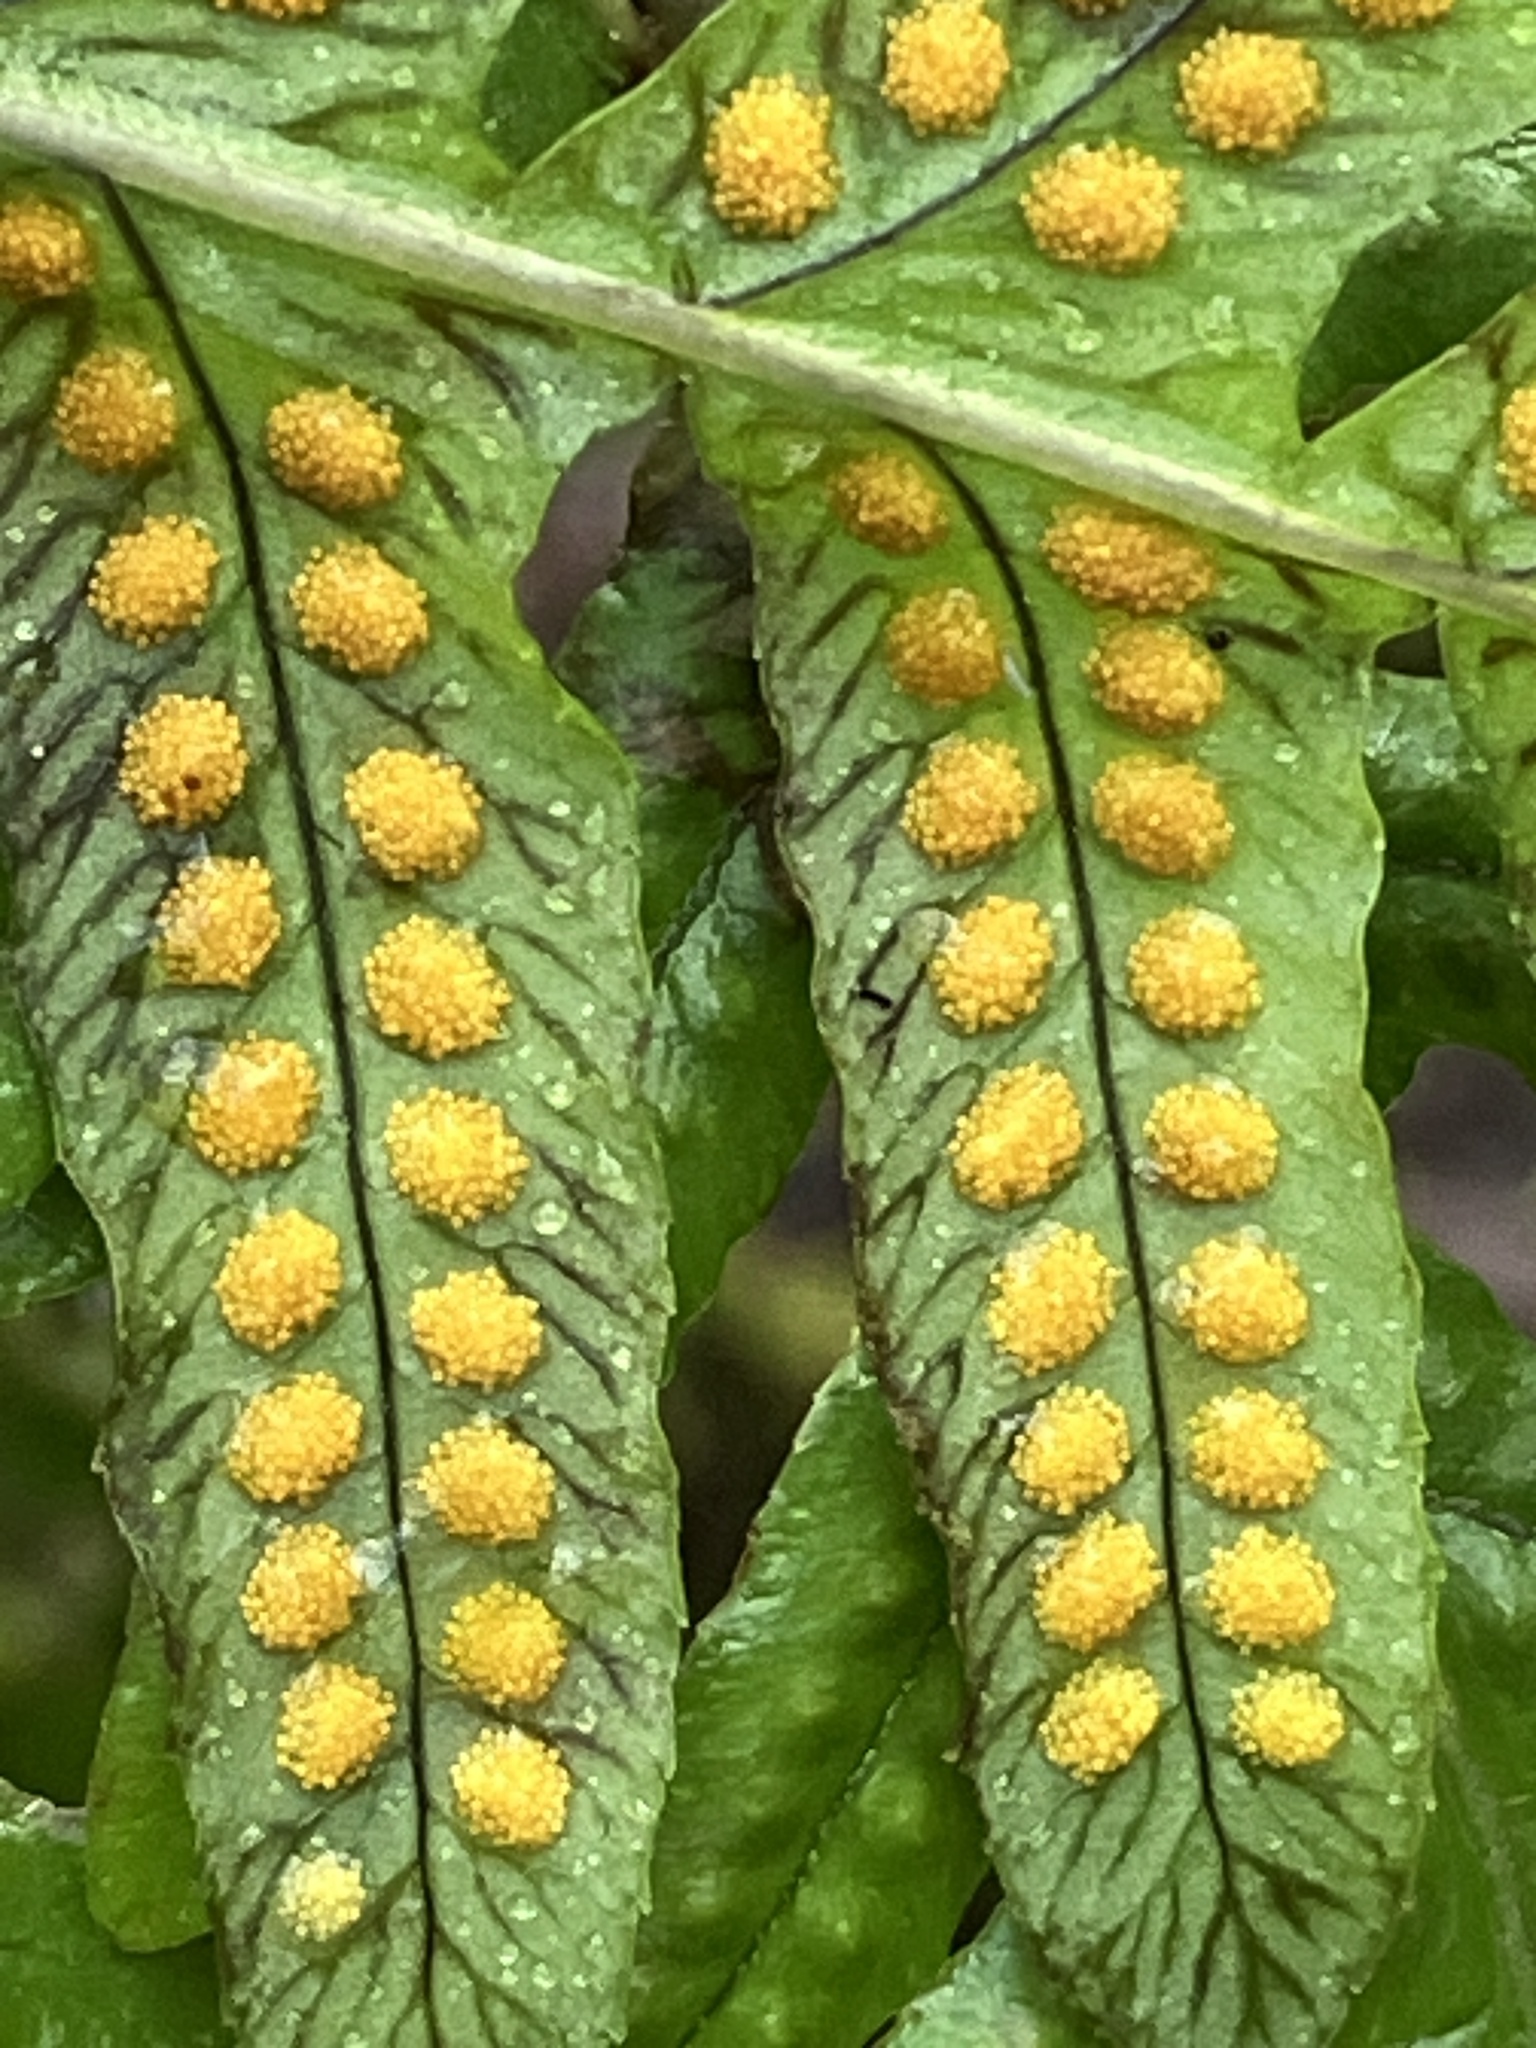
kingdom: Plantae
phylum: Tracheophyta
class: Polypodiopsida
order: Polypodiales
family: Polypodiaceae
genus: Polypodium
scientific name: Polypodium glycyrrhiza
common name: Licorice fern
